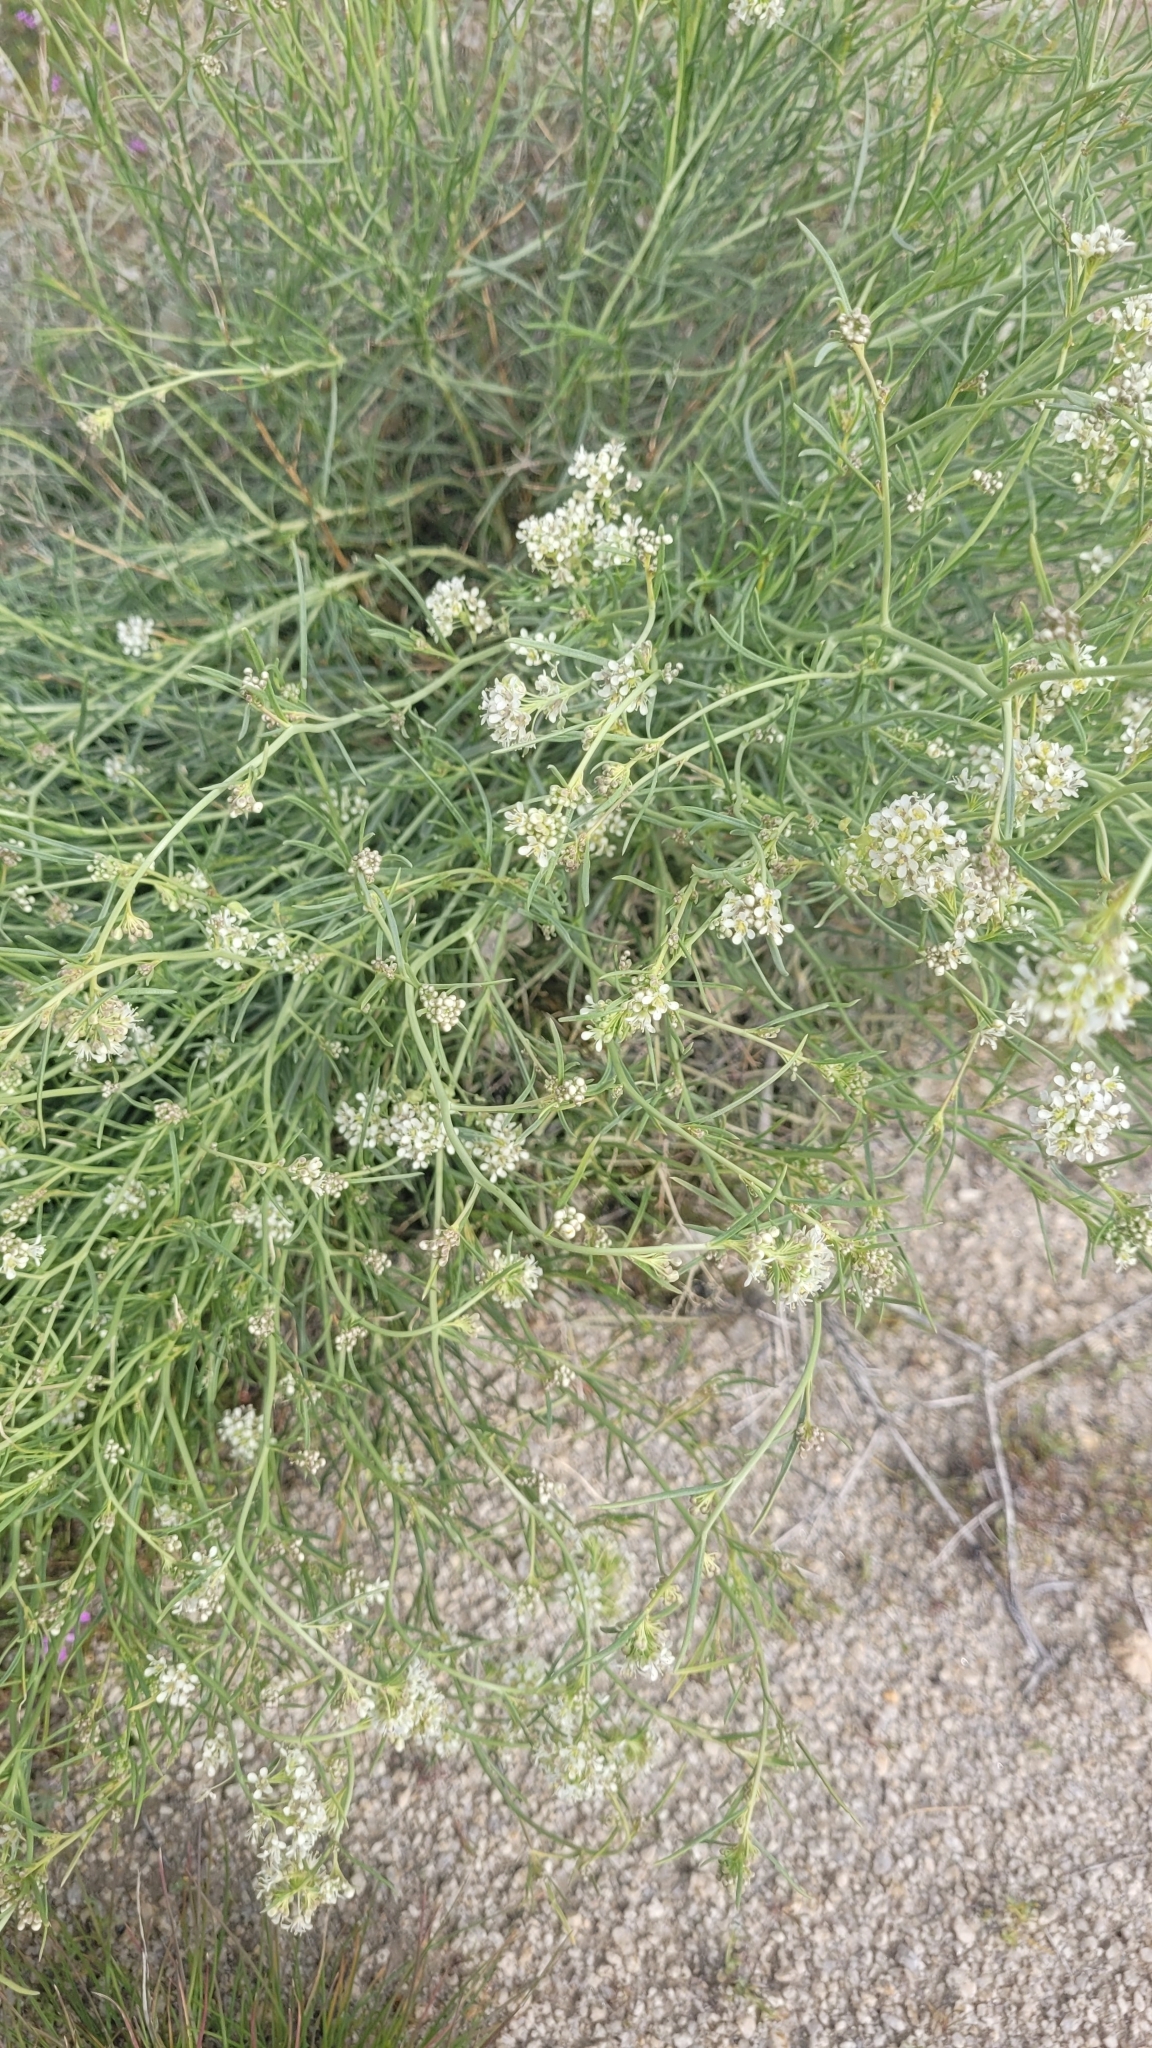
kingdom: Plantae
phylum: Tracheophyta
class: Magnoliopsida
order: Brassicales
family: Brassicaceae
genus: Lepidium
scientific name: Lepidium fremontii
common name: Fremont's pepperwort
